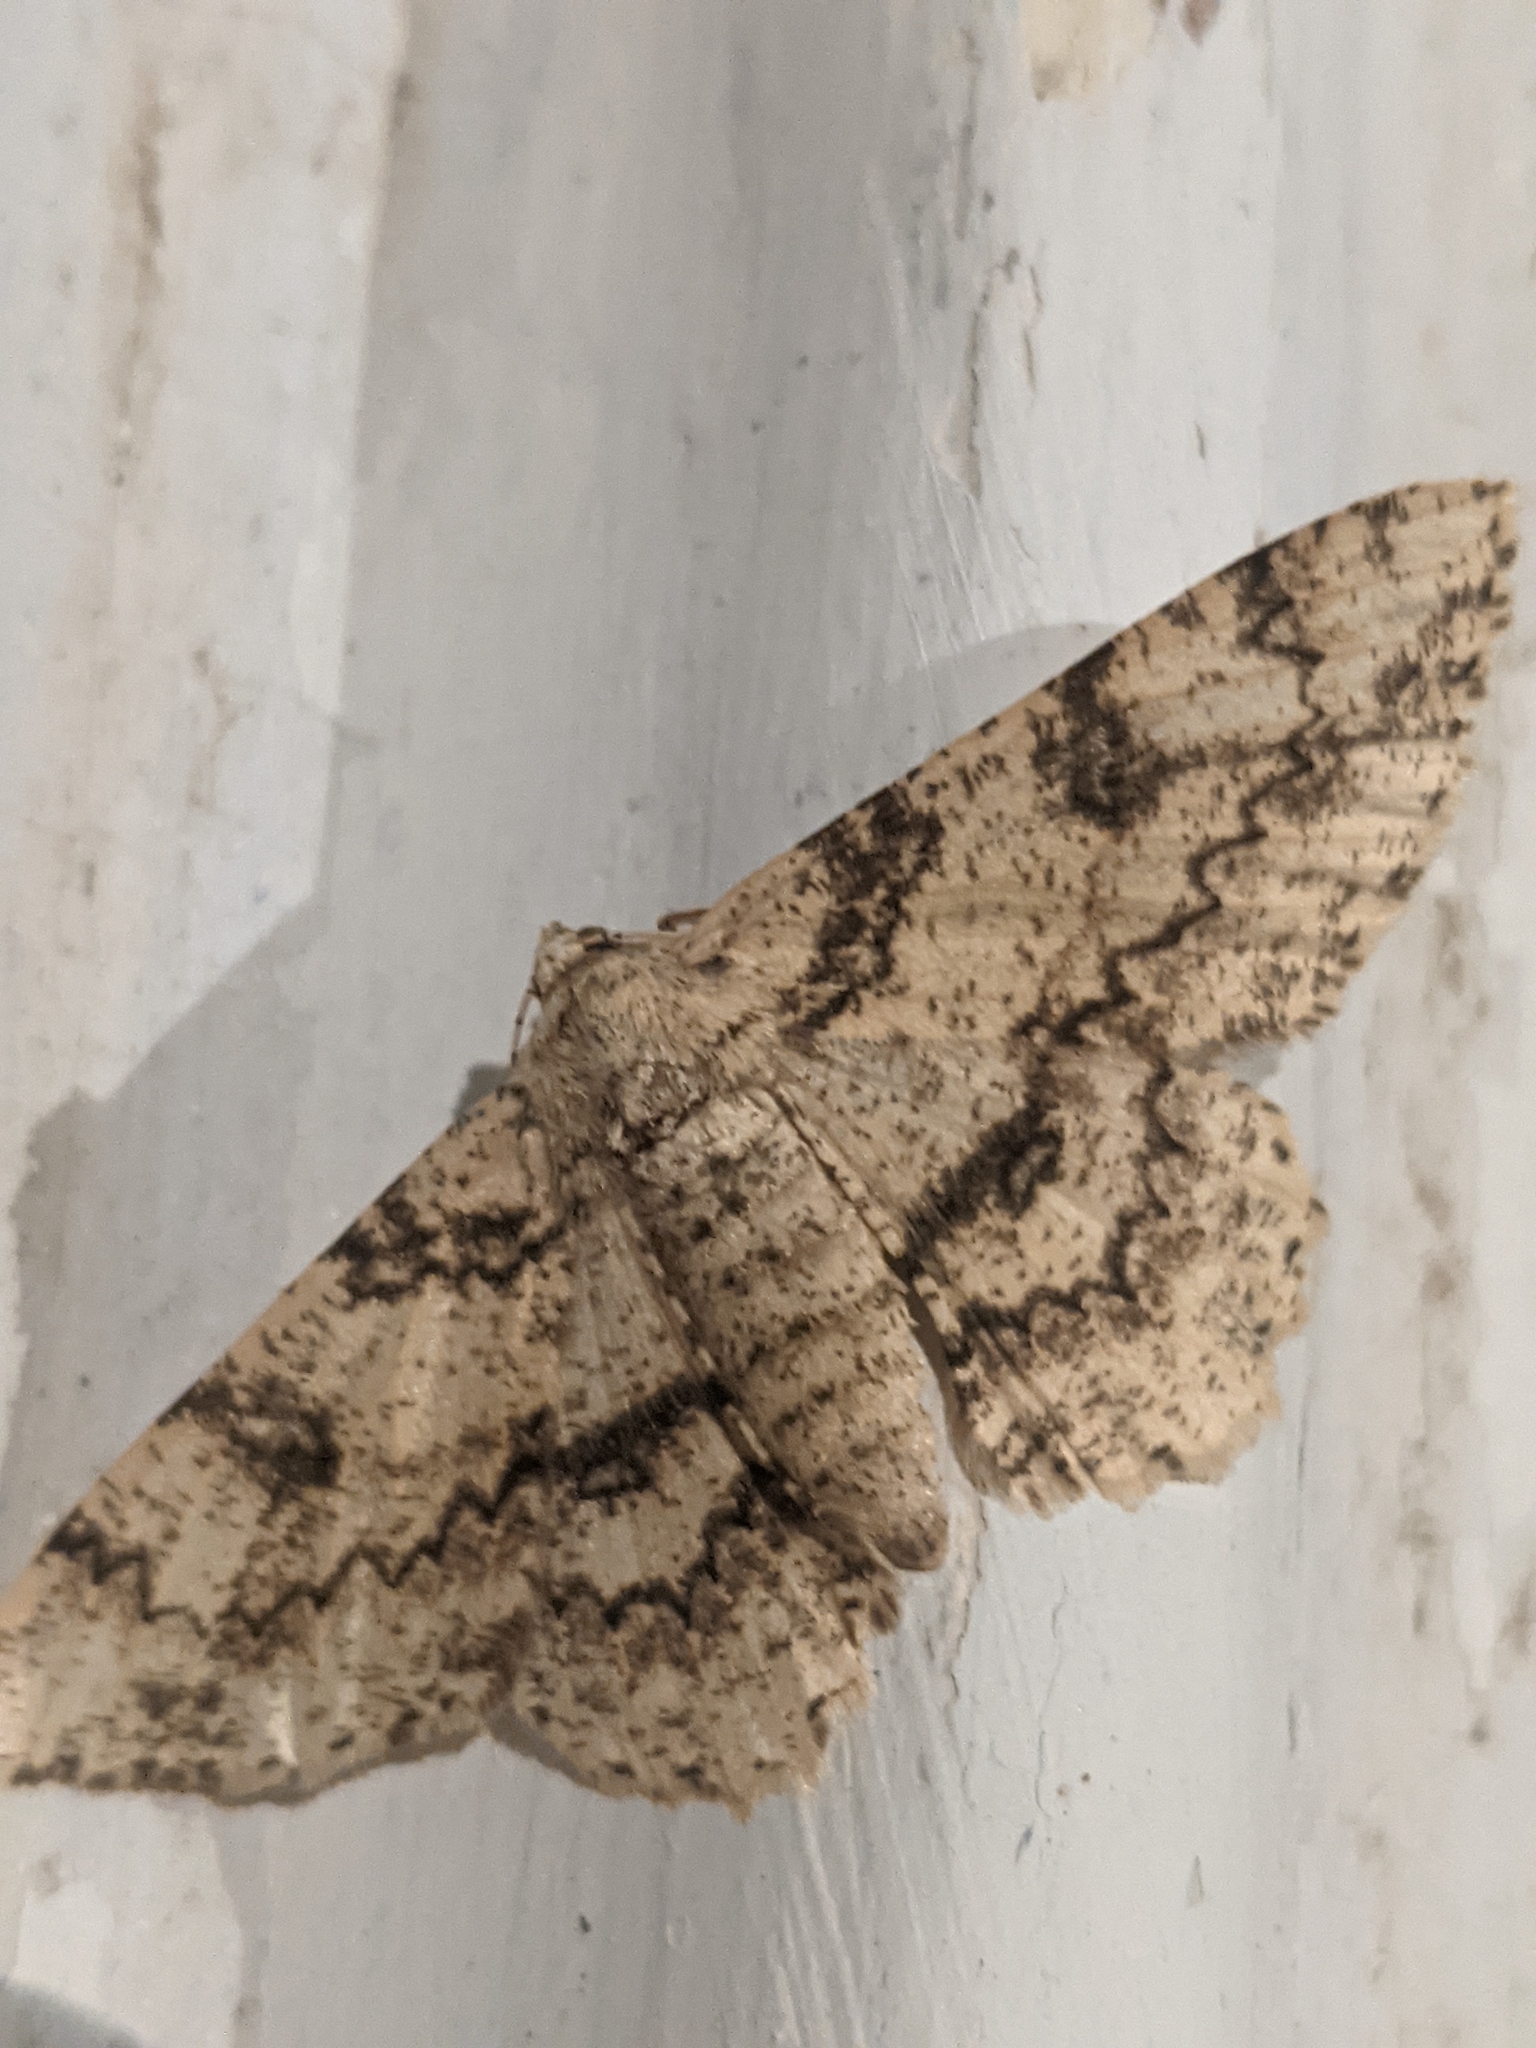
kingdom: Animalia
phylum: Arthropoda
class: Insecta
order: Lepidoptera
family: Geometridae
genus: Ascotis
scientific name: Ascotis selenaria
